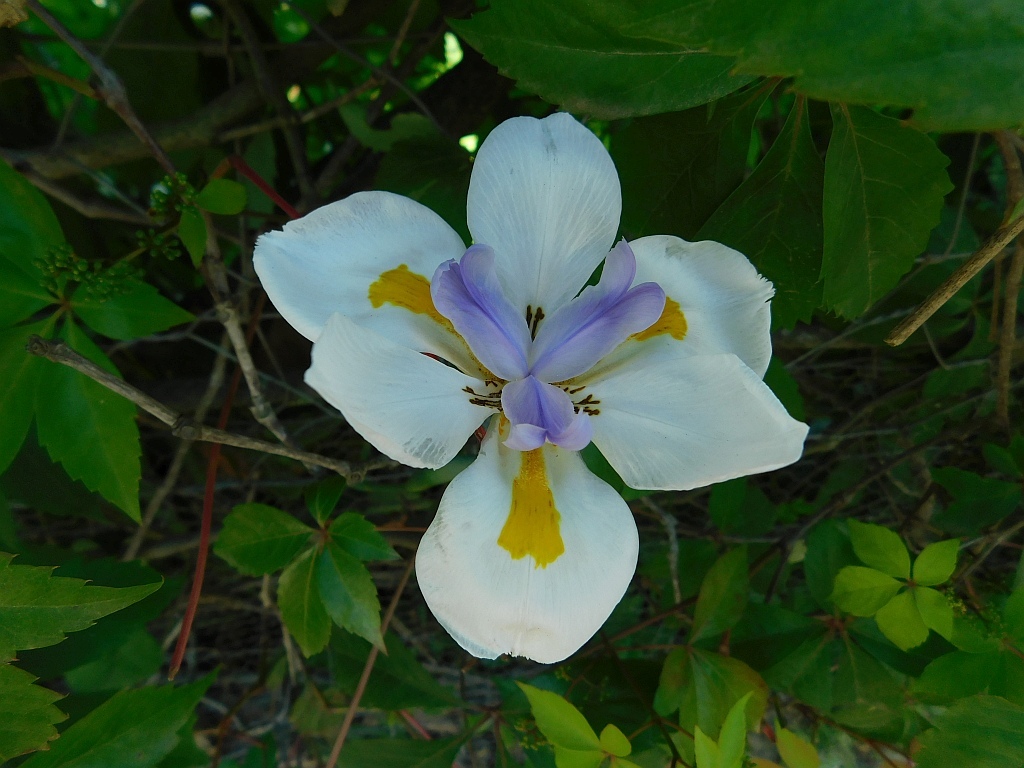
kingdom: Plantae
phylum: Tracheophyta
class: Liliopsida
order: Asparagales
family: Iridaceae
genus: Dietes
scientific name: Dietes grandiflora
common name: Wild iris
